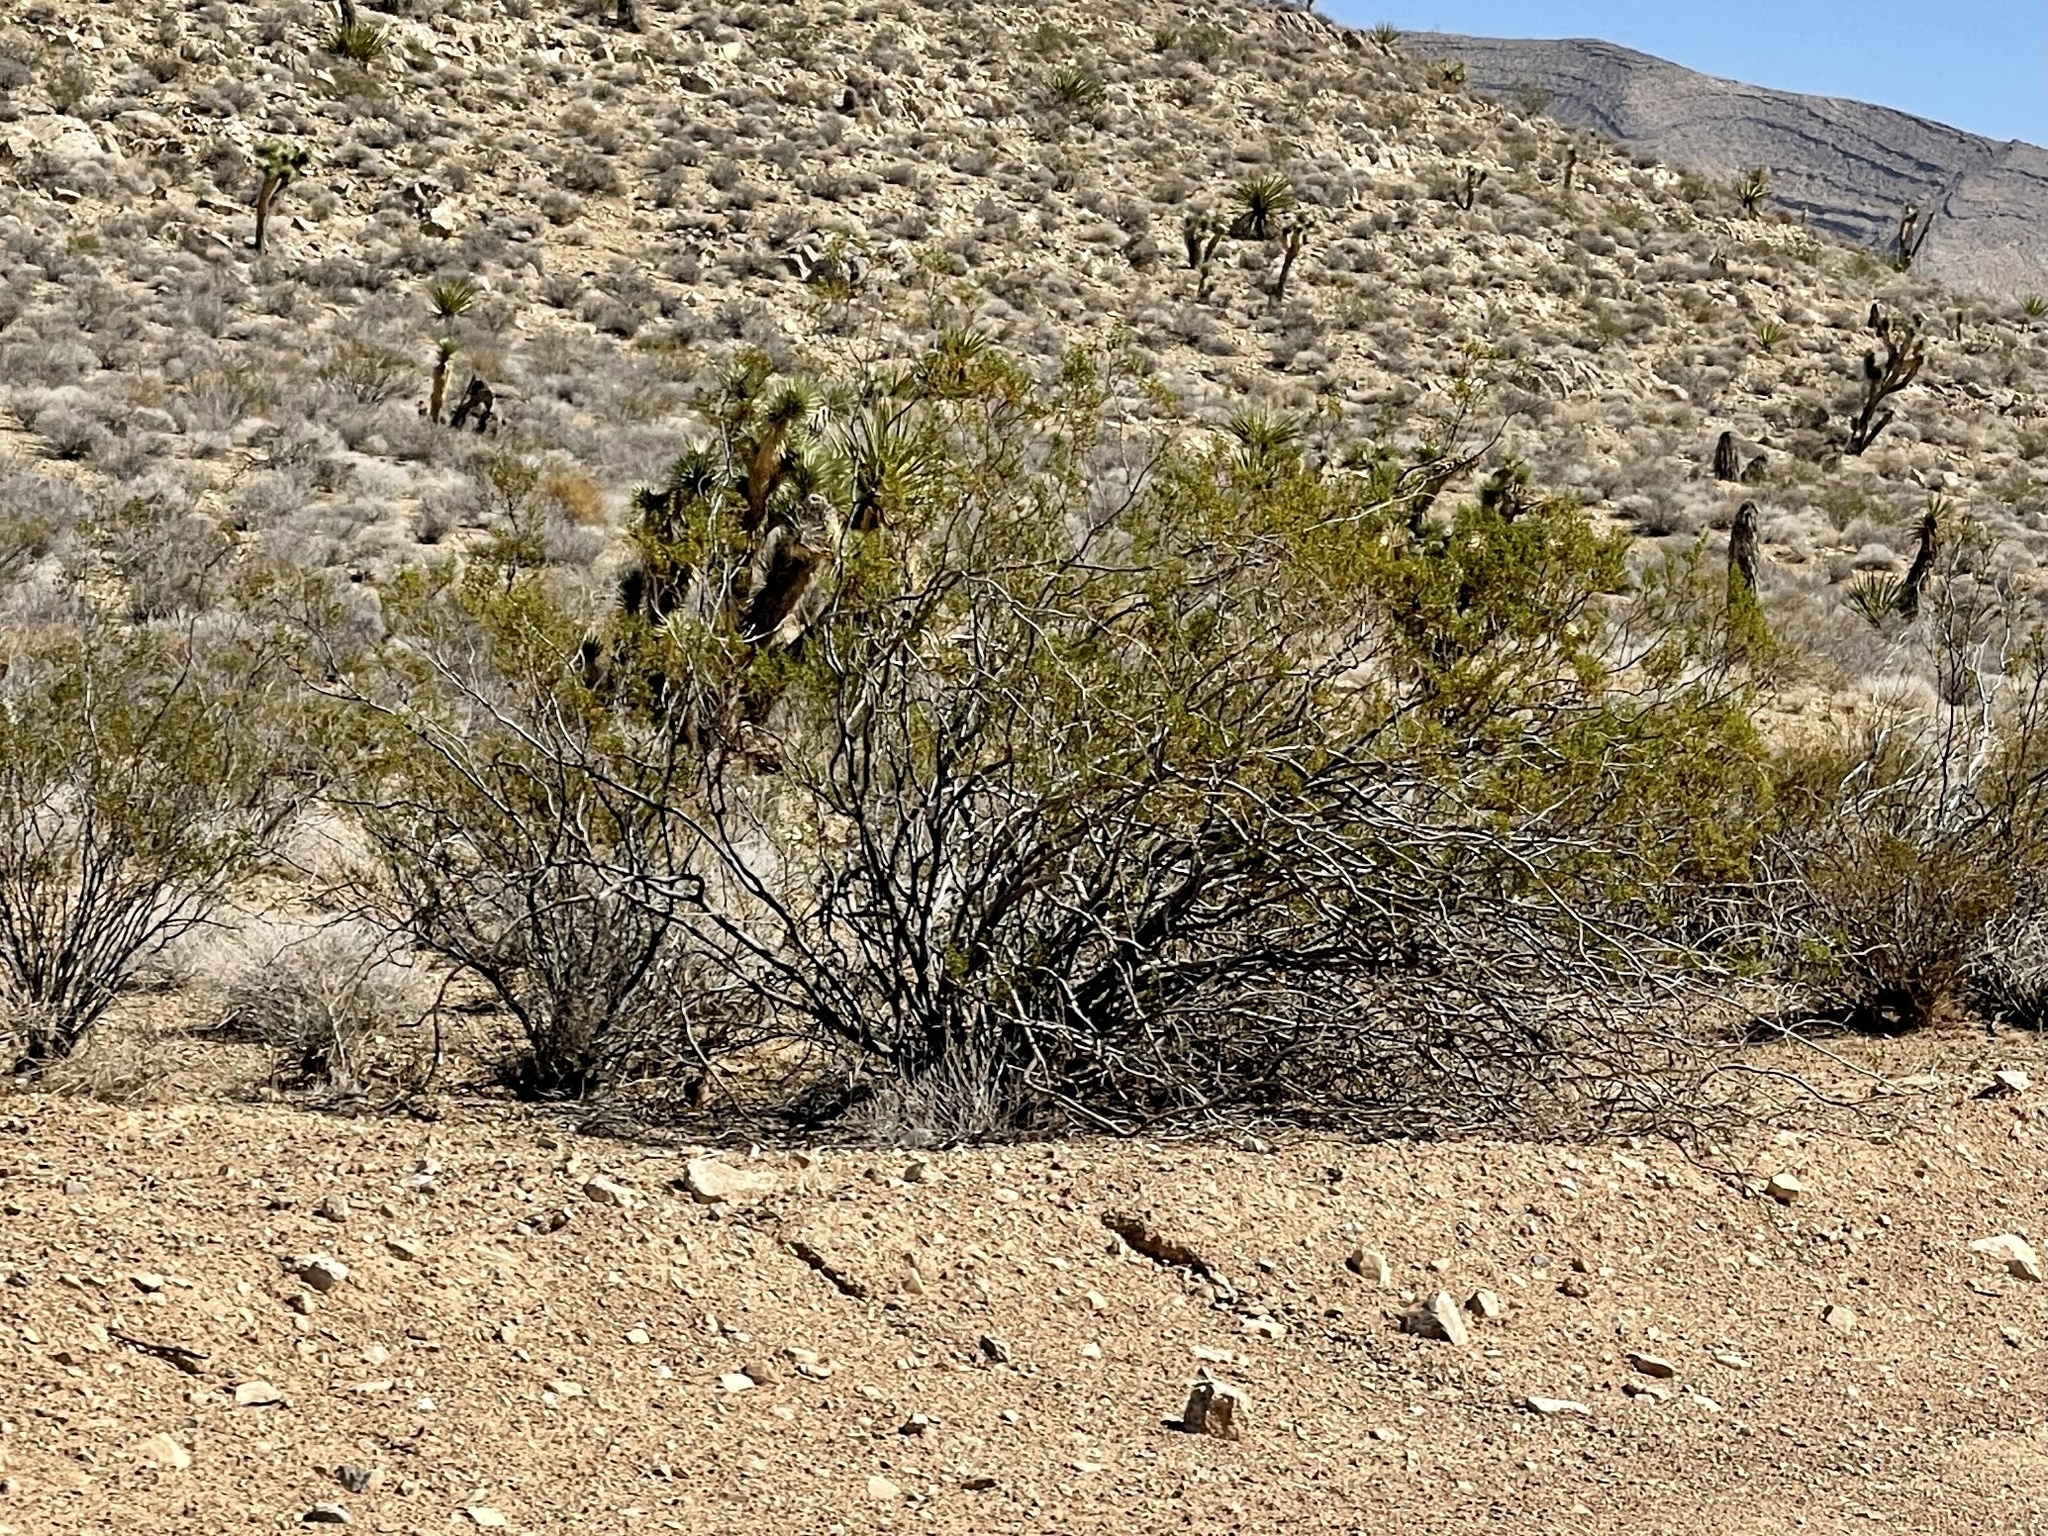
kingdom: Plantae
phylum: Tracheophyta
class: Magnoliopsida
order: Zygophyllales
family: Zygophyllaceae
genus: Larrea
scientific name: Larrea tridentata
